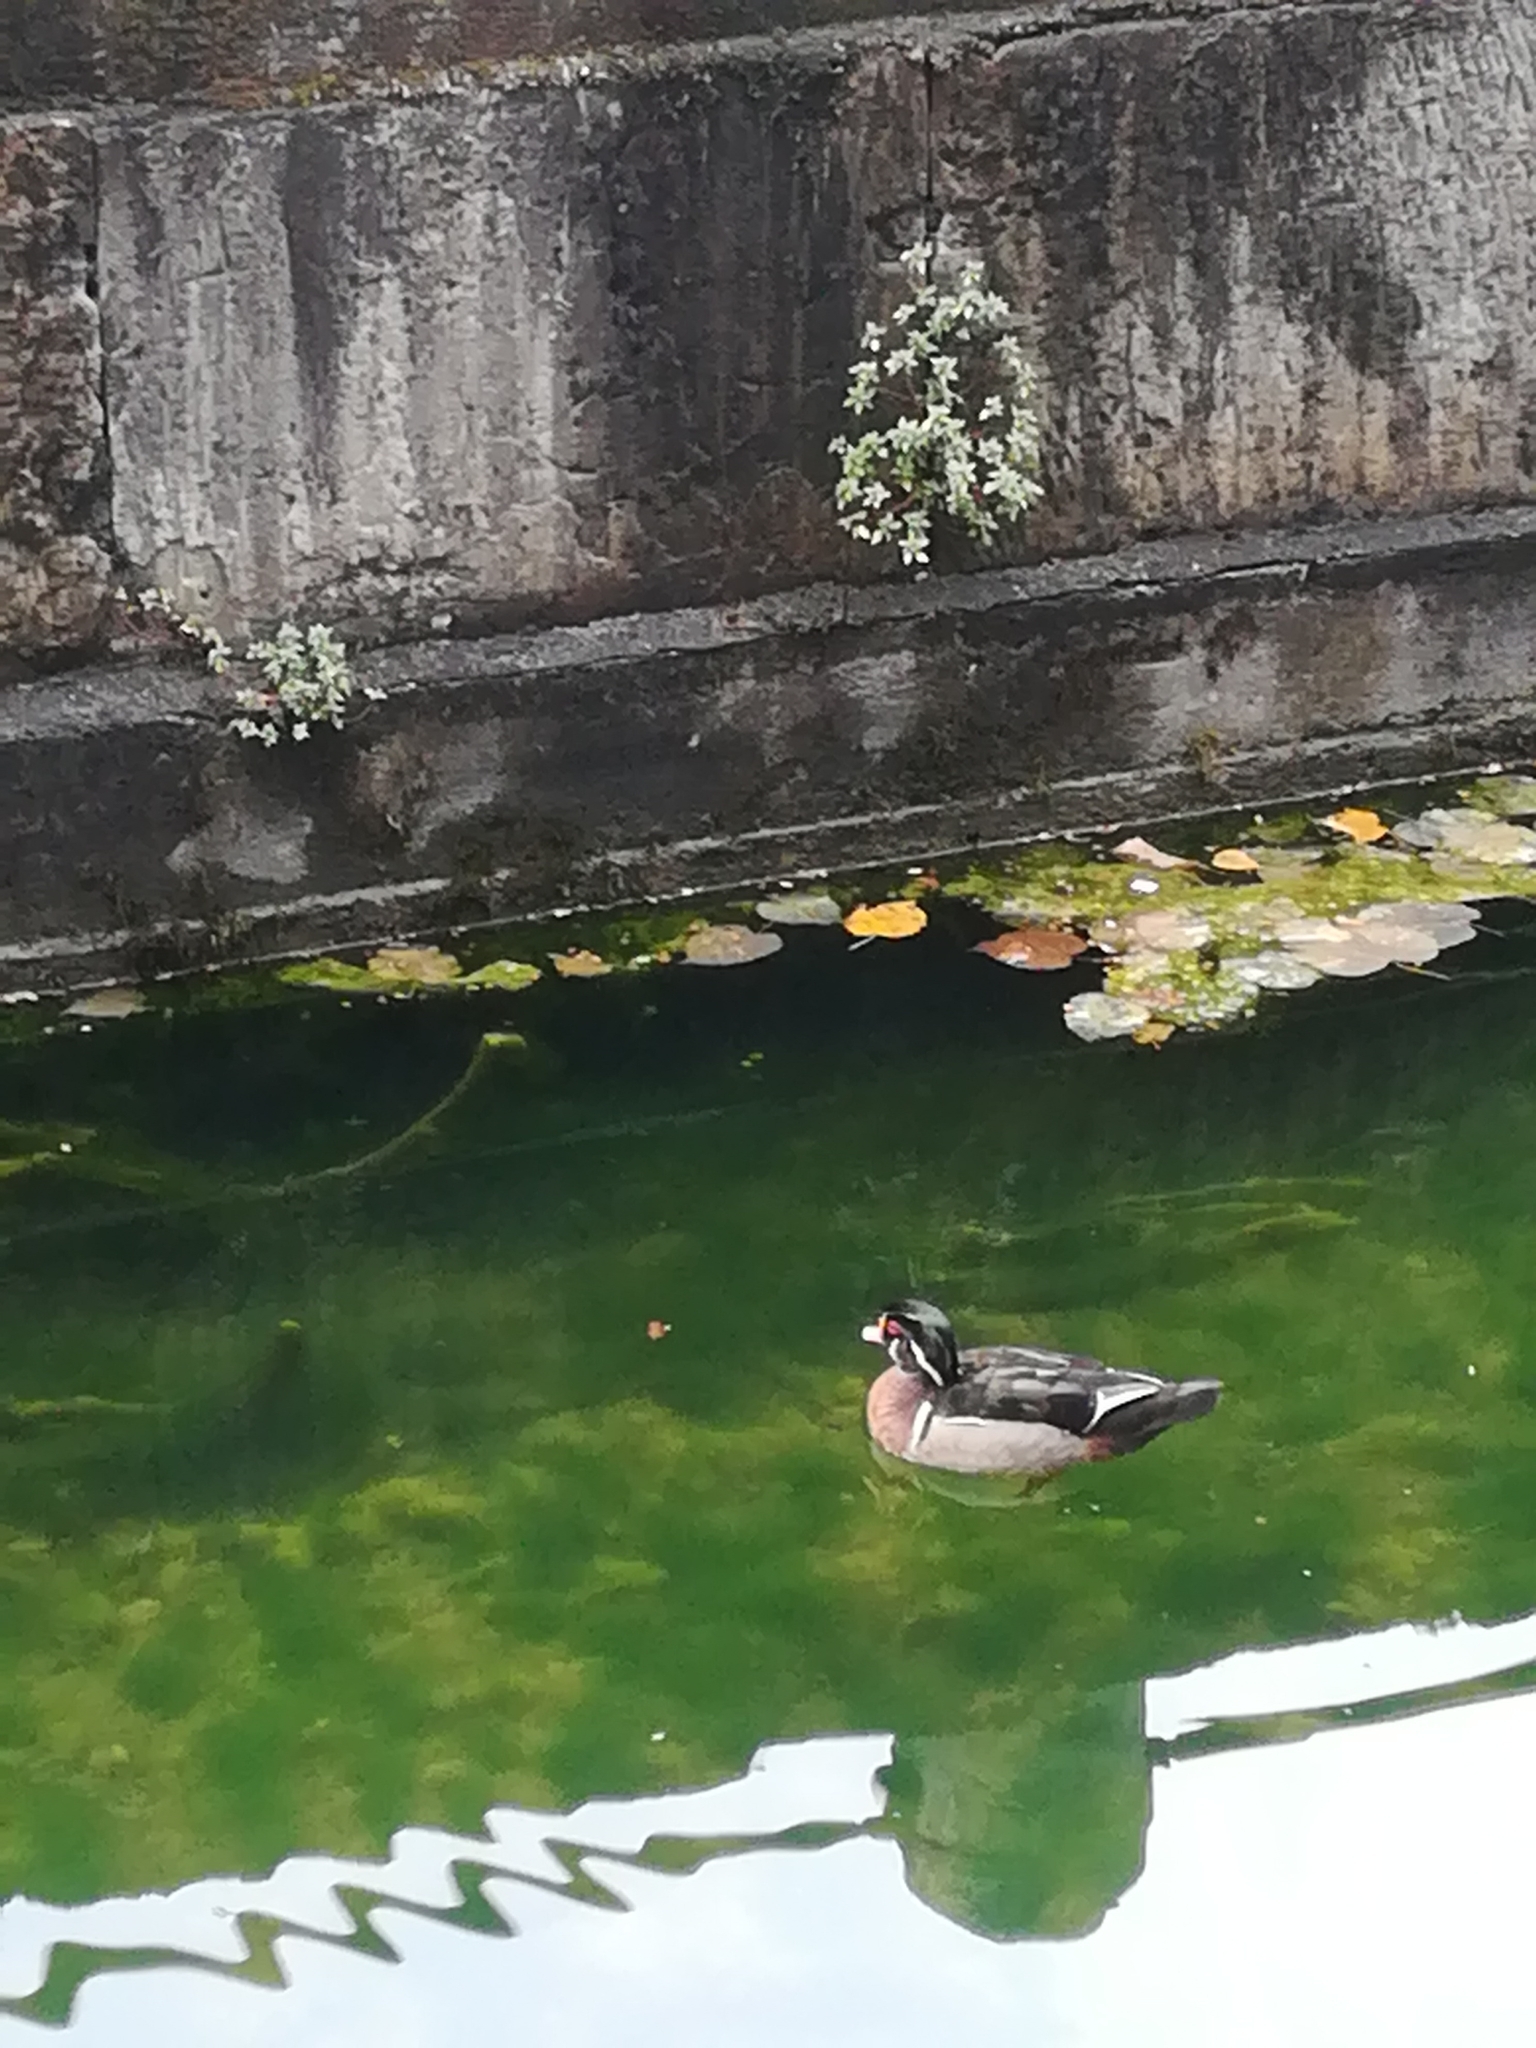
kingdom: Animalia
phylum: Chordata
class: Aves
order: Anseriformes
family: Anatidae
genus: Aix
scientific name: Aix sponsa
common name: Wood duck
